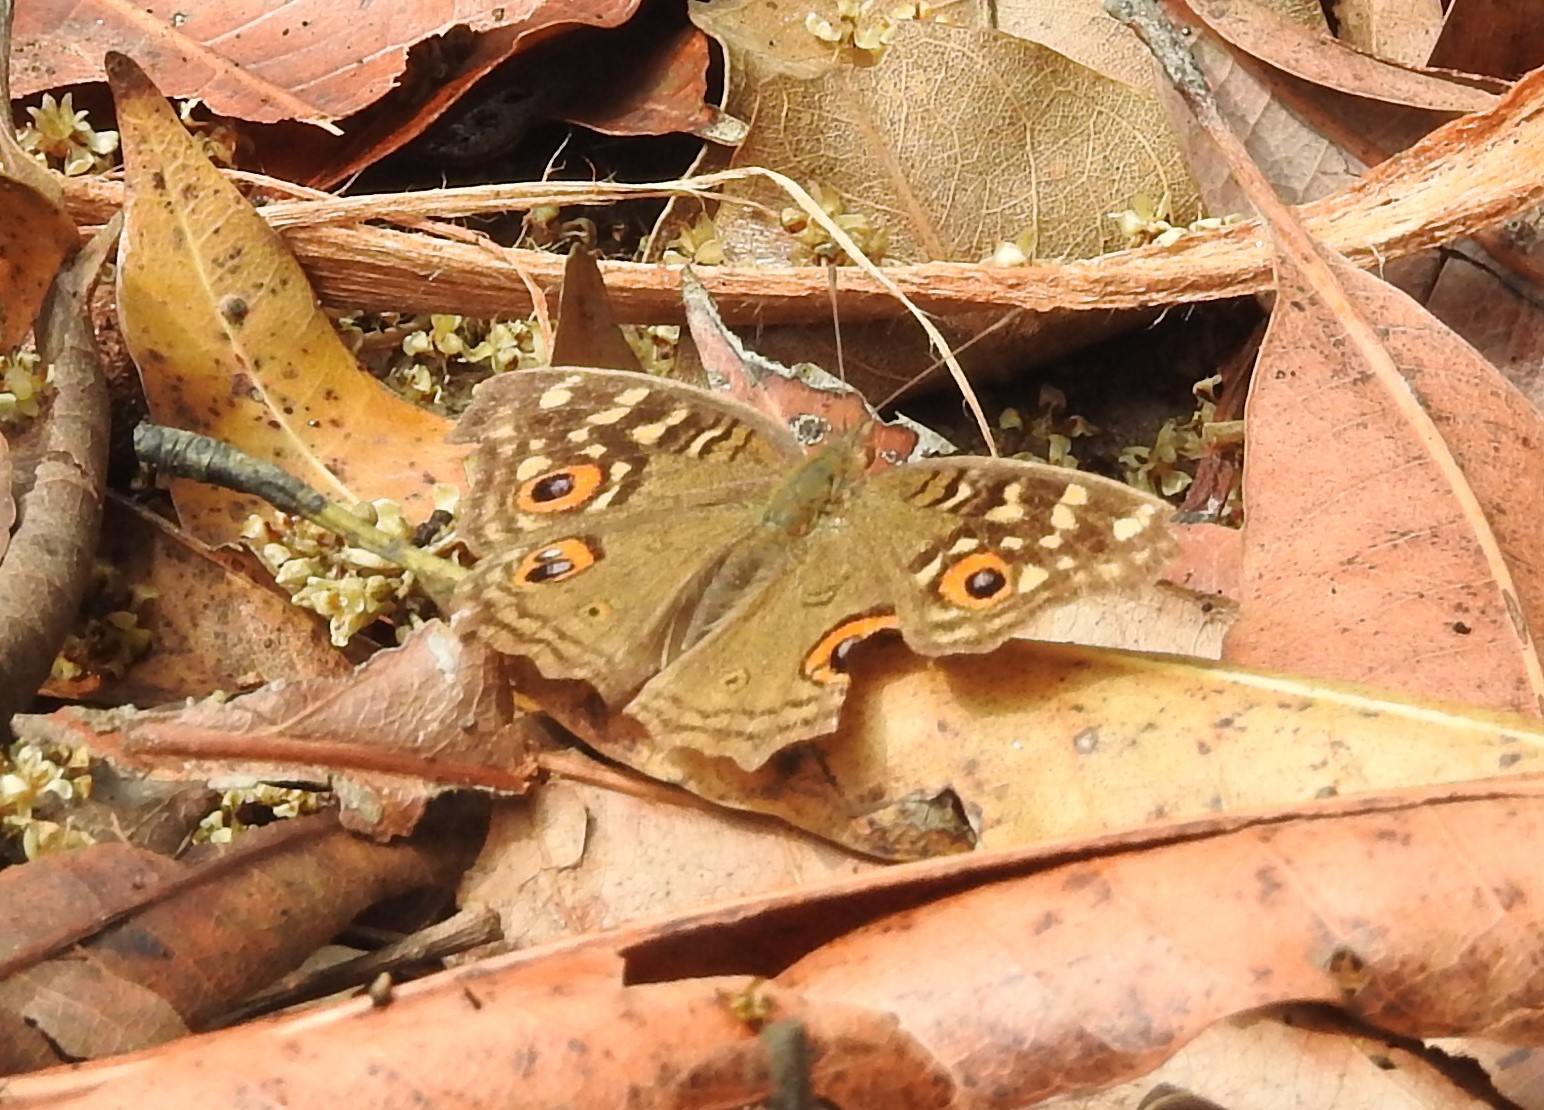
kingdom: Animalia
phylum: Arthropoda
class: Insecta
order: Lepidoptera
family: Nymphalidae
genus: Junonia
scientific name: Junonia lemonias
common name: Lemon pansy
